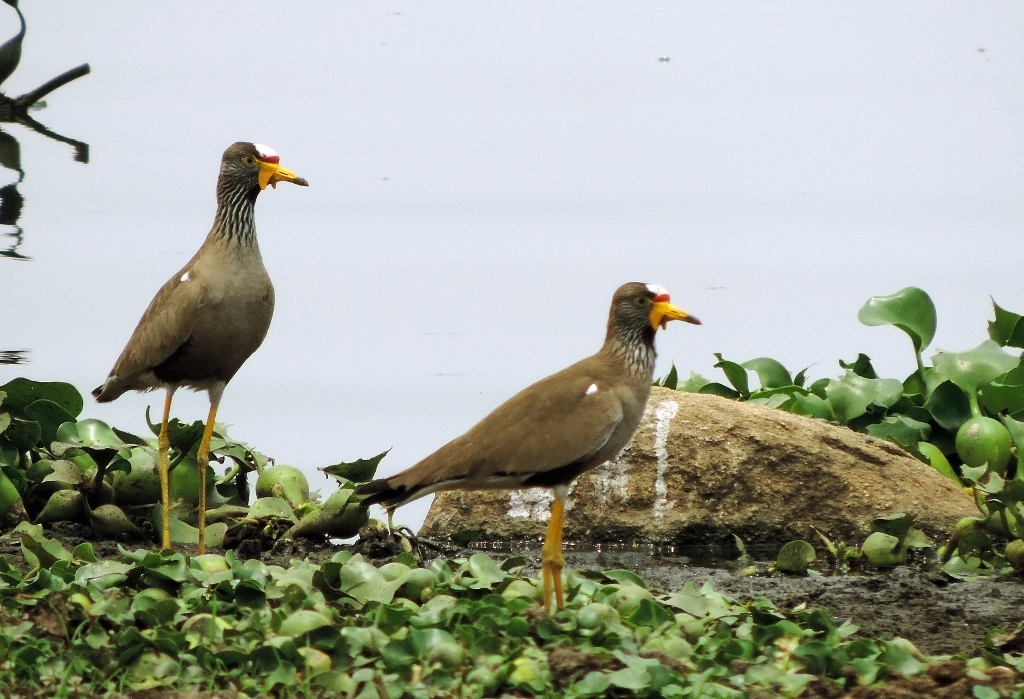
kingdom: Animalia
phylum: Chordata
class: Aves
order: Charadriiformes
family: Charadriidae
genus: Vanellus
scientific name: Vanellus senegallus
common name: African wattled lapwing
